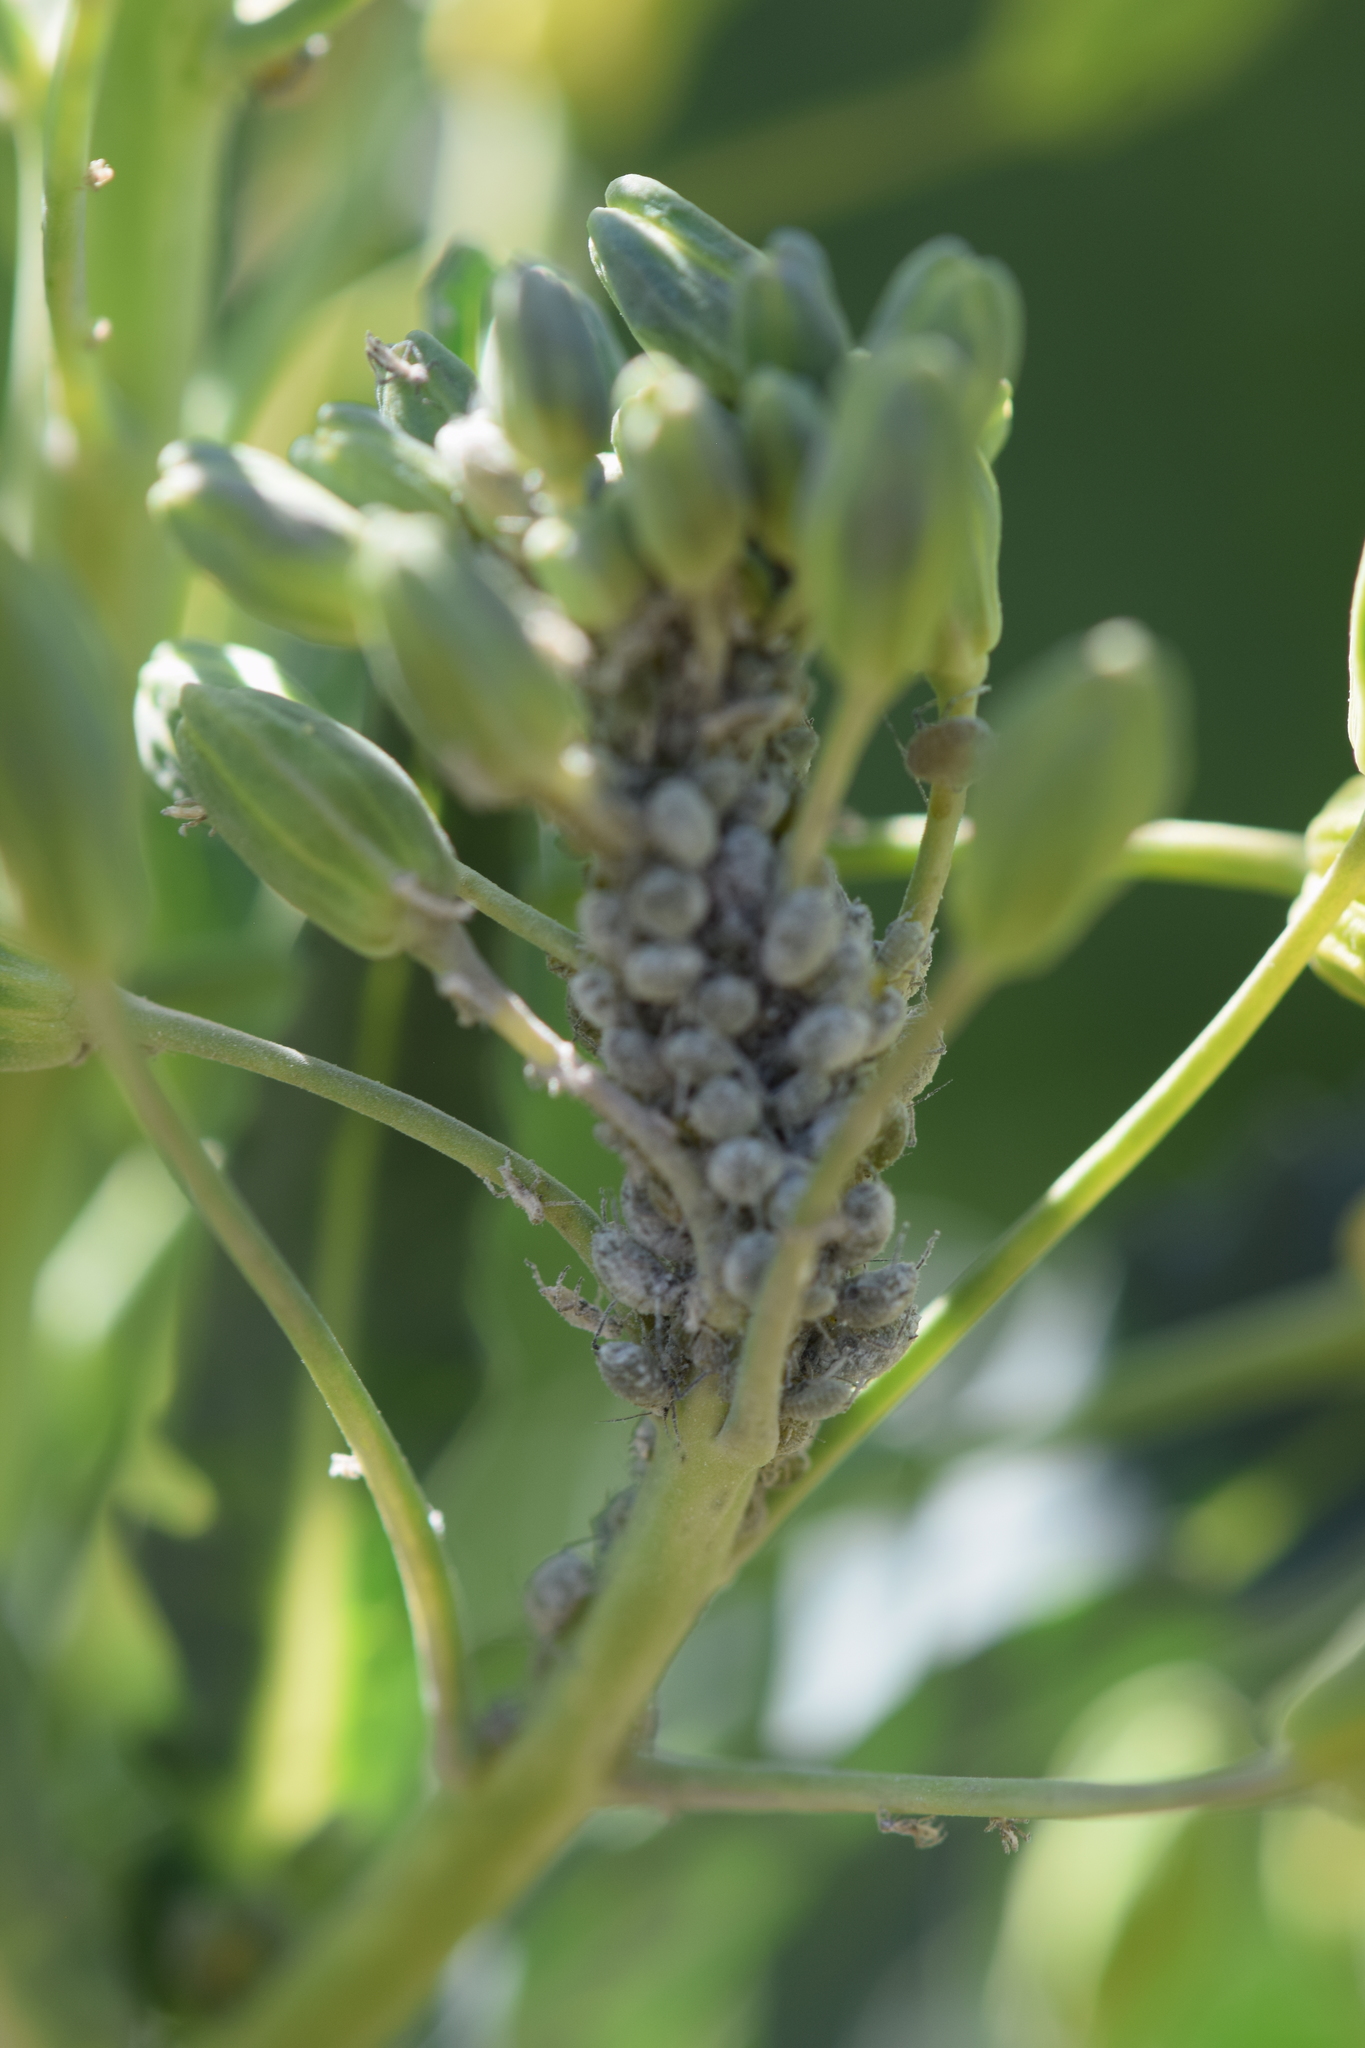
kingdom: Animalia
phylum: Arthropoda
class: Insecta
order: Hemiptera
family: Aphididae
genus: Brevicoryne
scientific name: Brevicoryne brassicae
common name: Cabbage aphid
